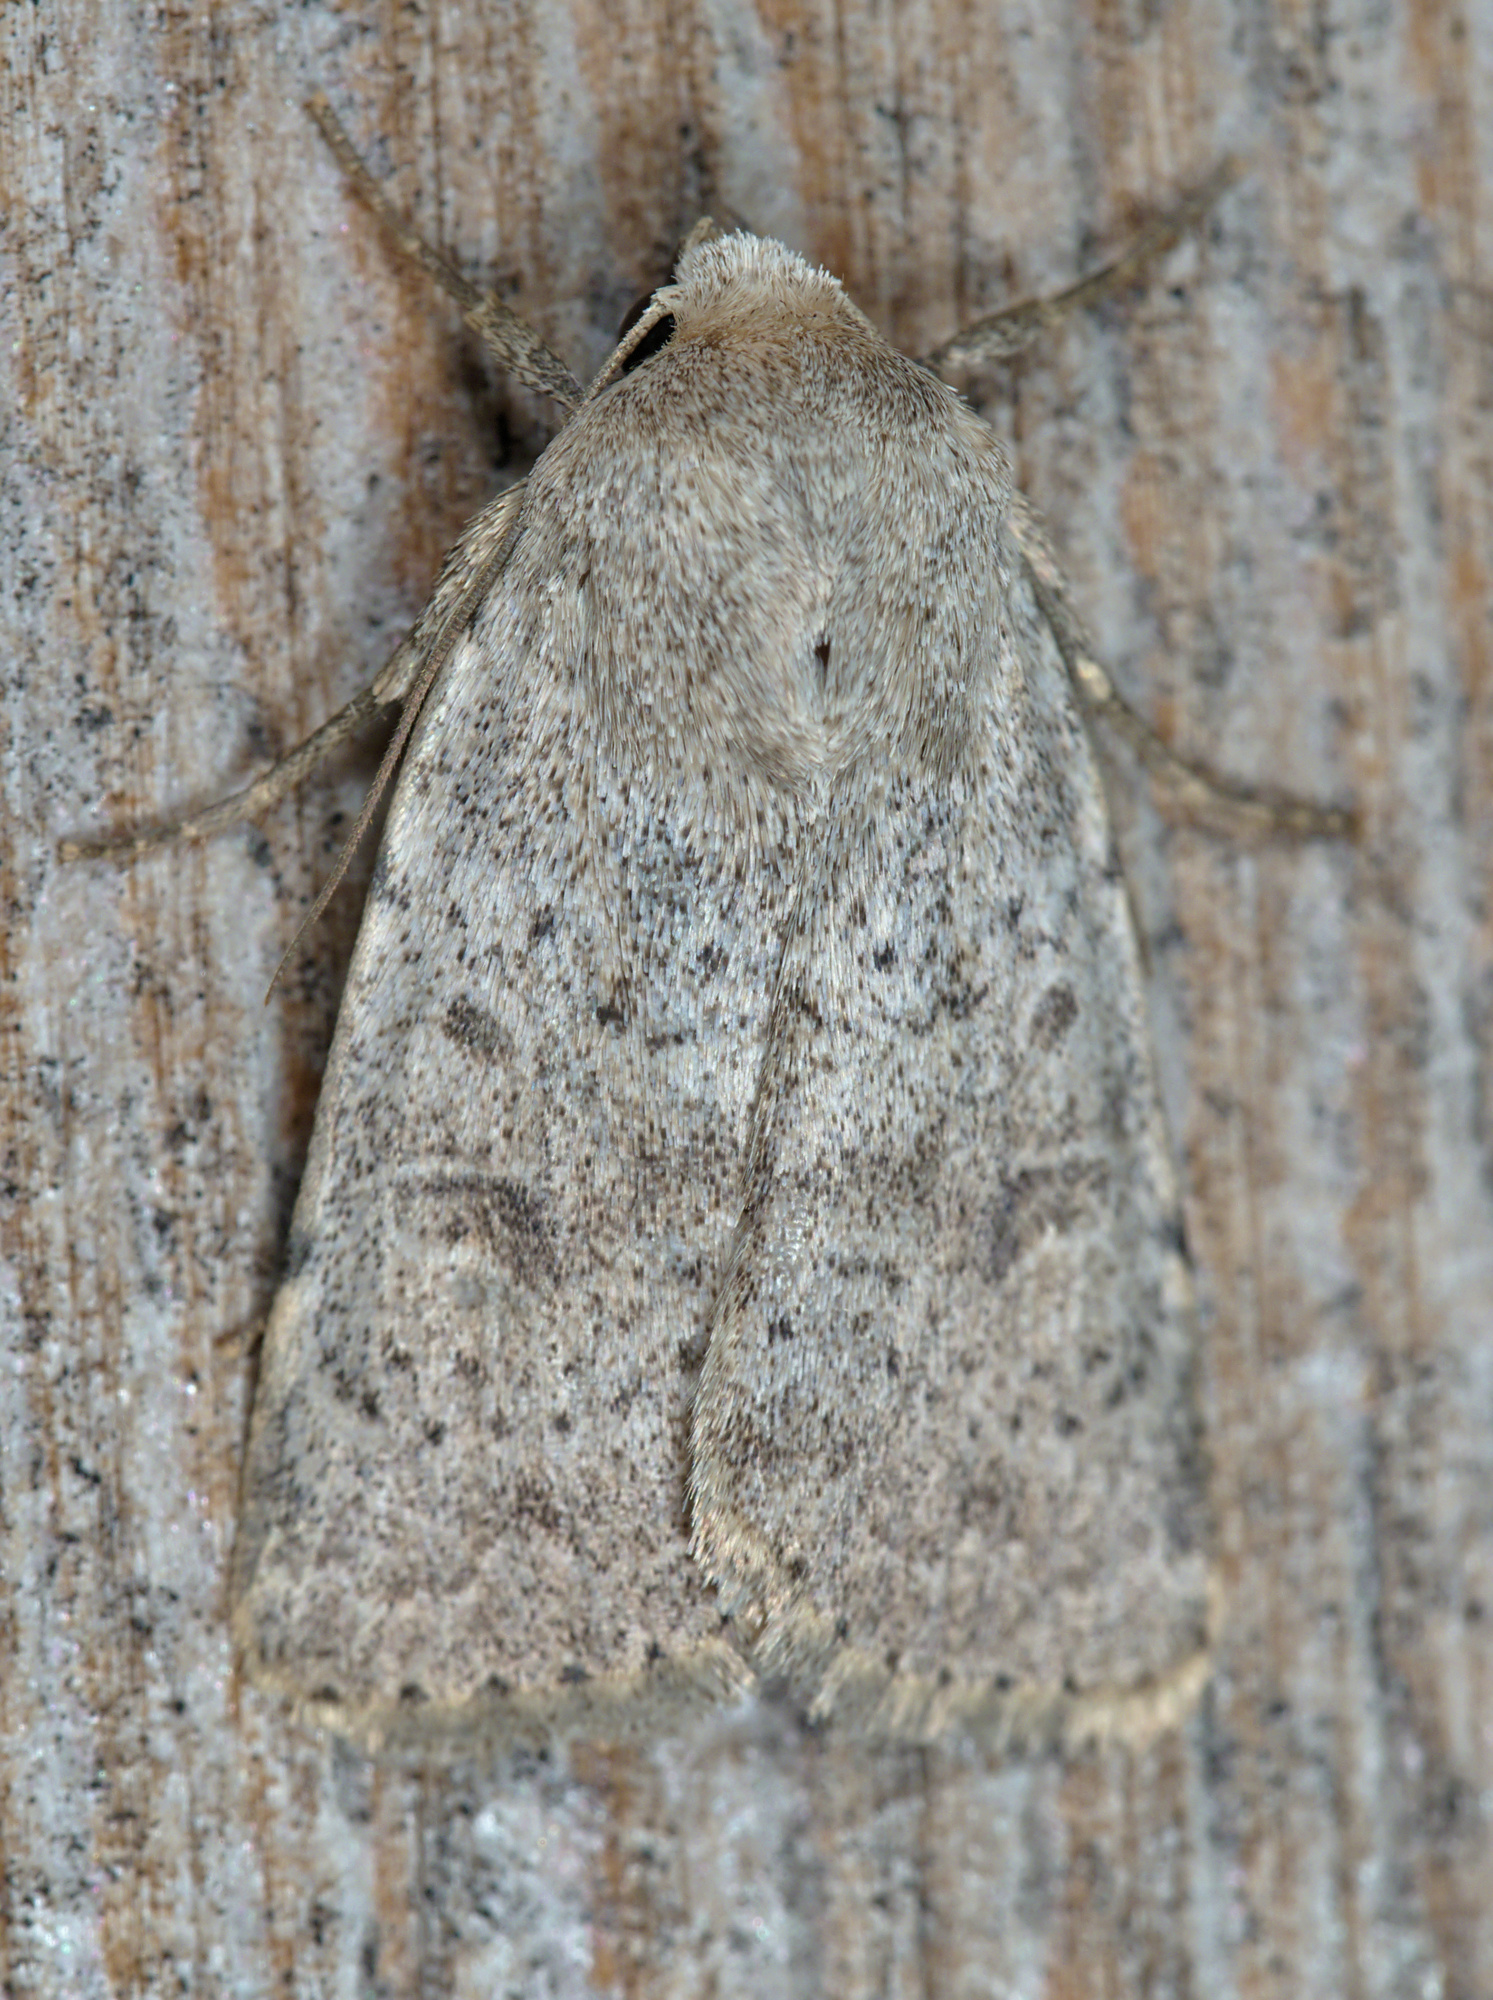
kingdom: Animalia
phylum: Arthropoda
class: Insecta
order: Lepidoptera
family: Noctuidae
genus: Hoplodrina
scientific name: Hoplodrina respersa
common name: Sprinkled rustic
